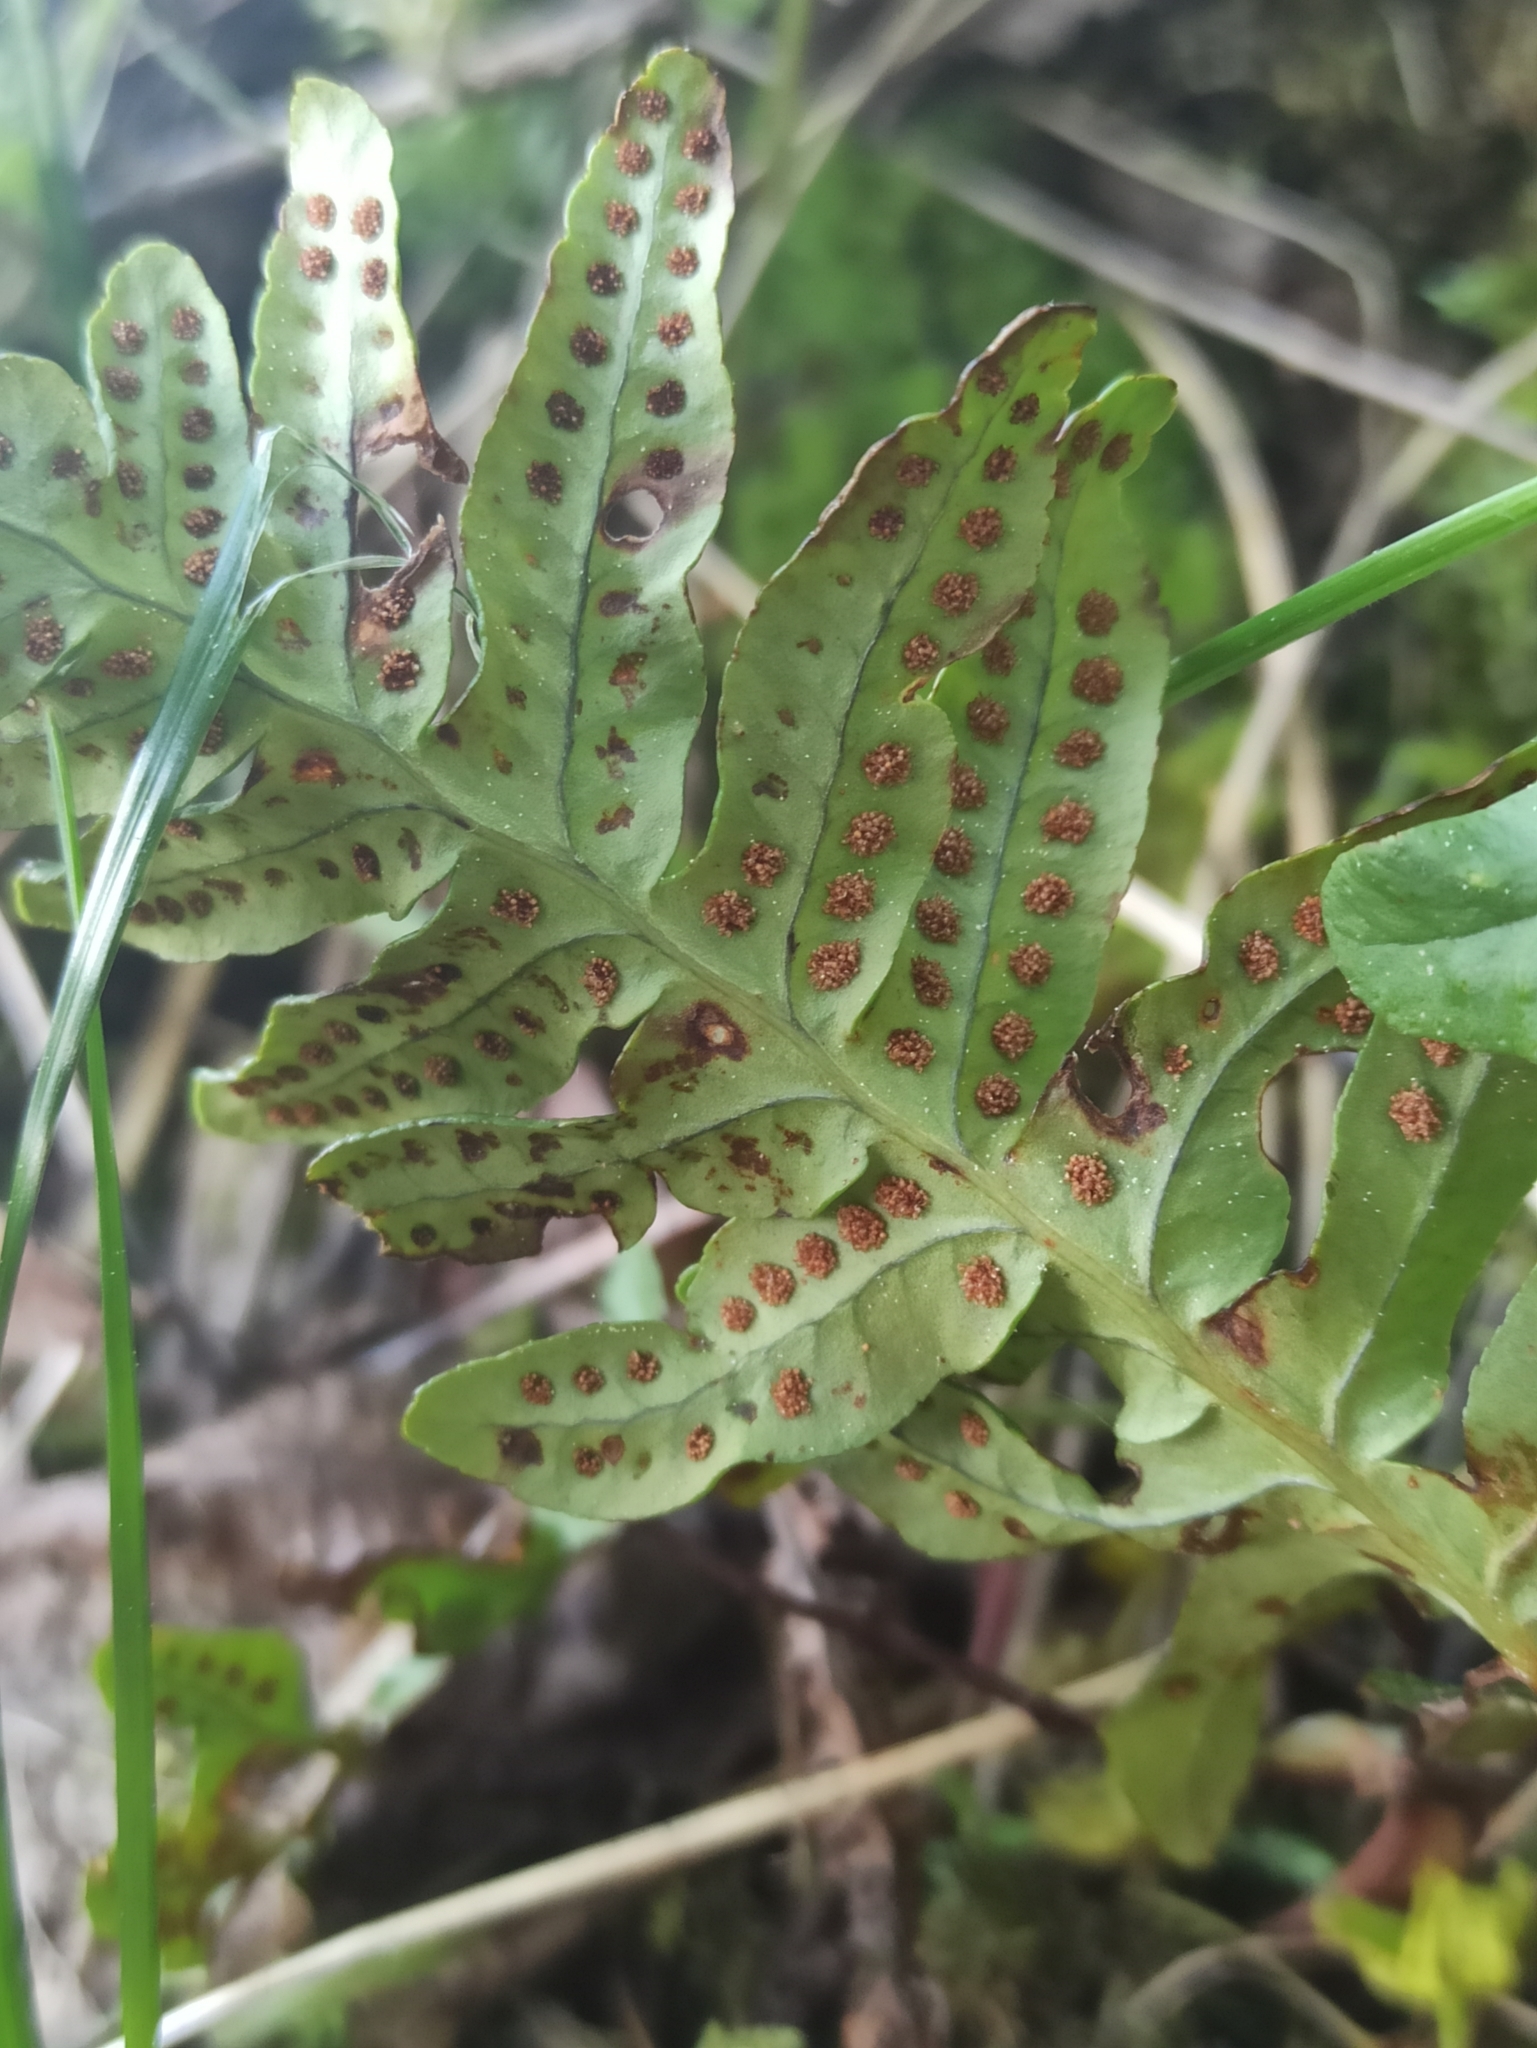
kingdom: Plantae
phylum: Tracheophyta
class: Polypodiopsida
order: Polypodiales
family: Polypodiaceae
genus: Polypodium
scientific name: Polypodium vulgare
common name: Common polypody
